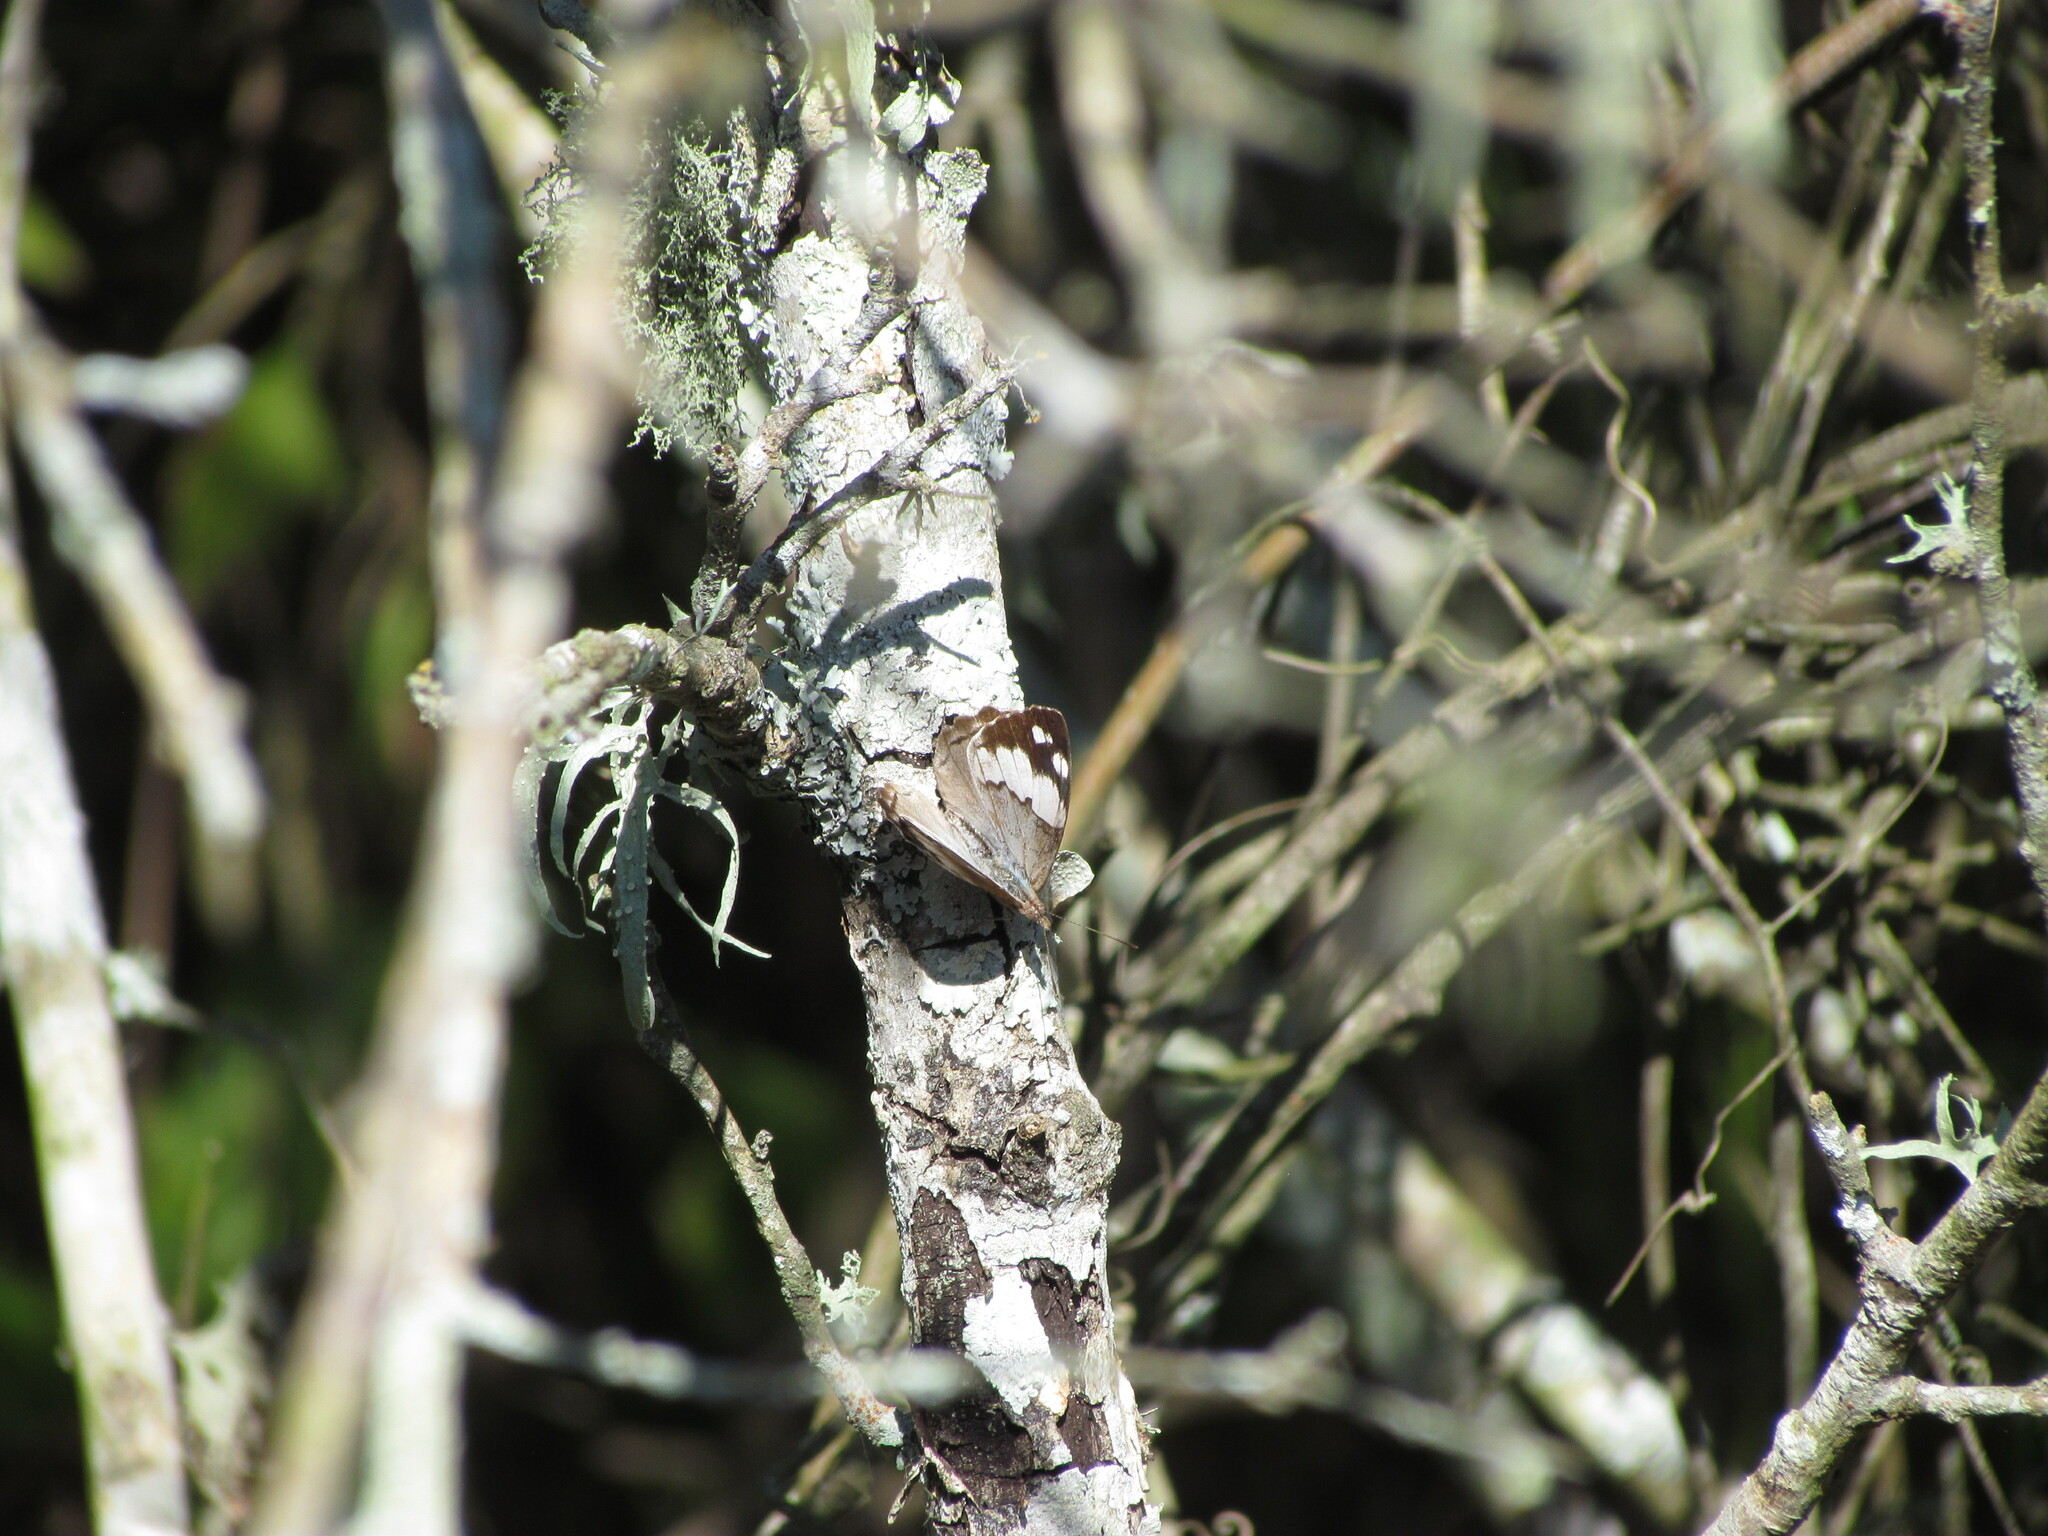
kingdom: Animalia
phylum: Arthropoda
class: Insecta
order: Lepidoptera
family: Nymphalidae
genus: Eunica
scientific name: Eunica eburnea
